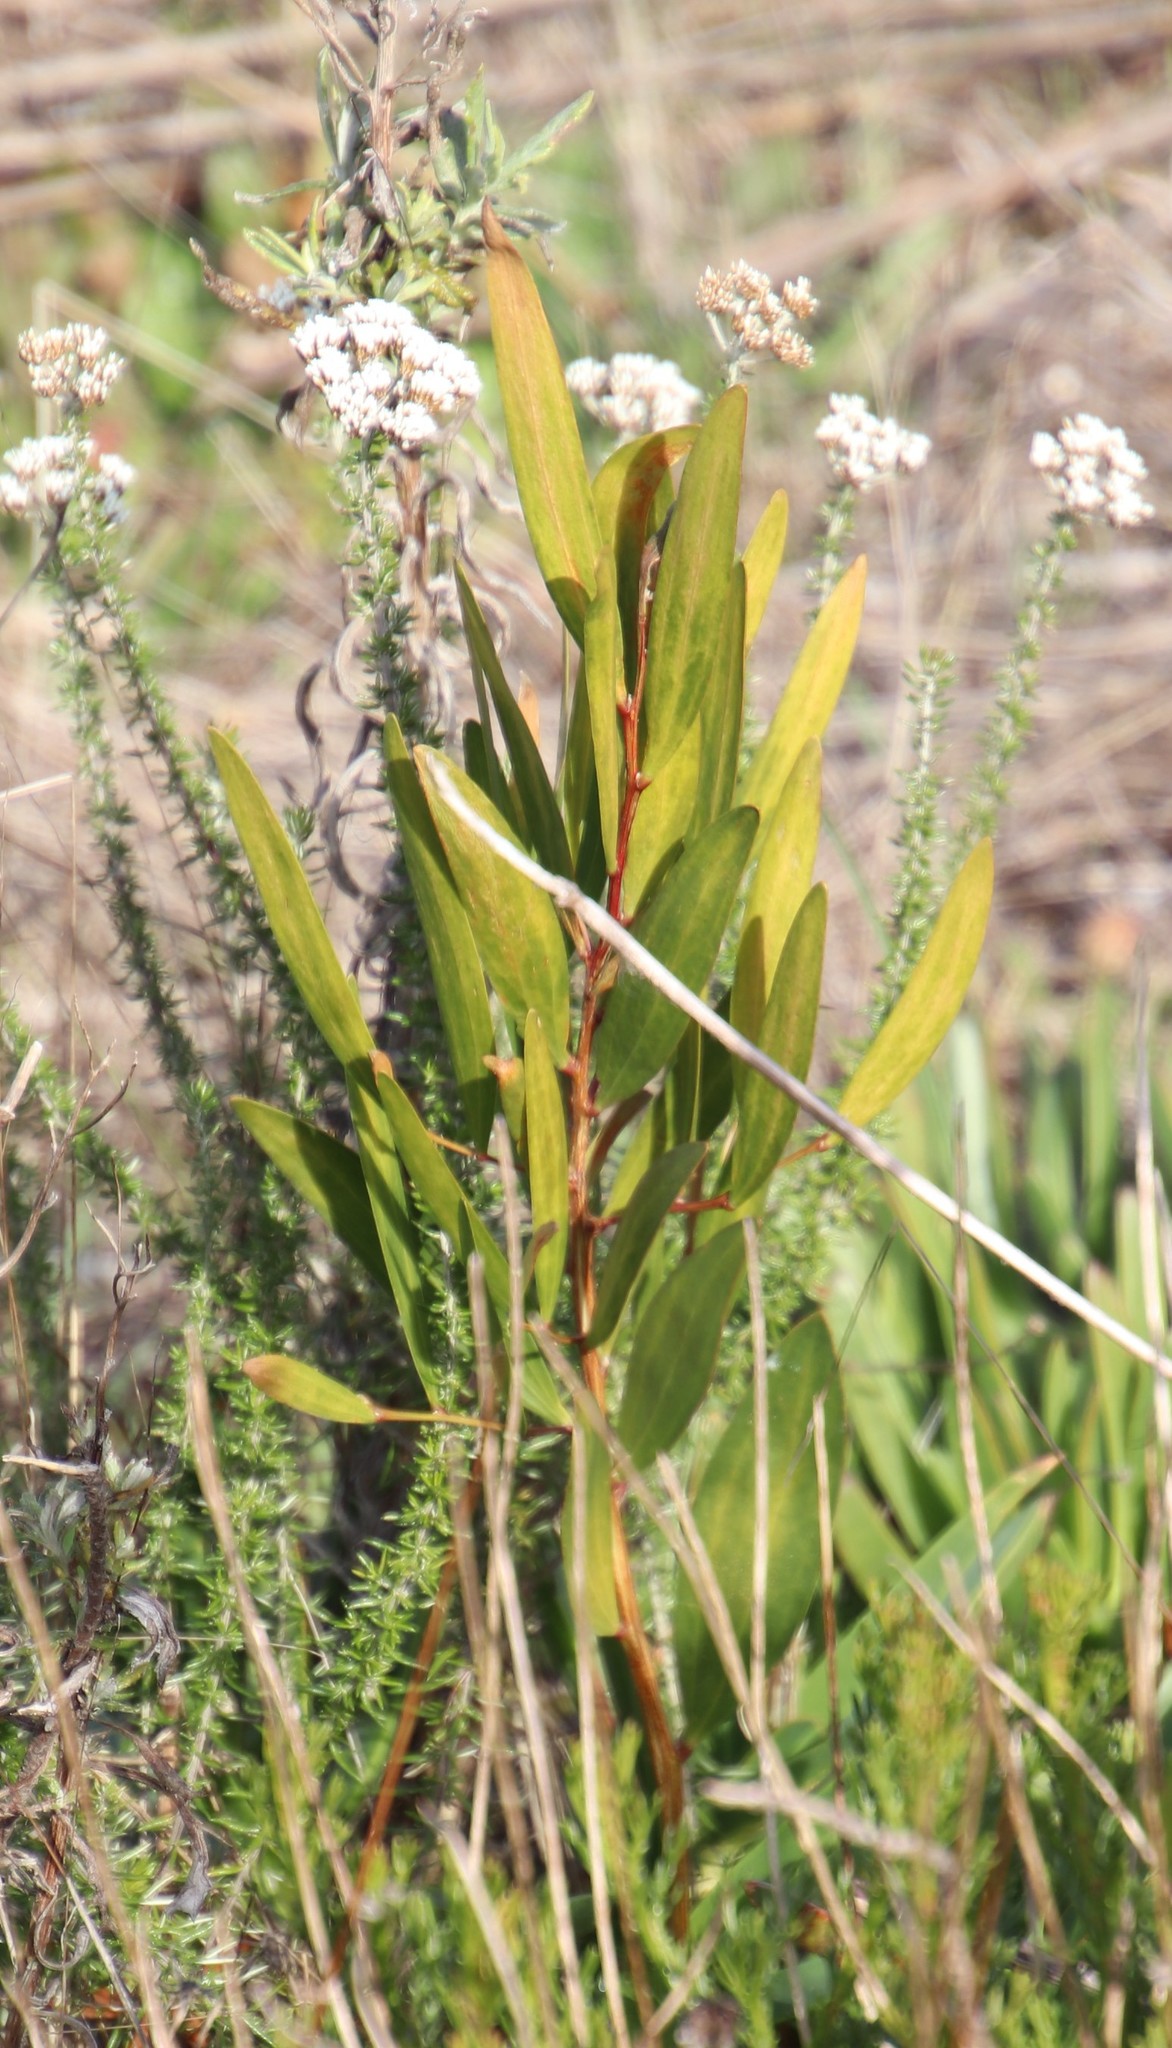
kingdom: Plantae
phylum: Tracheophyta
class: Magnoliopsida
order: Fabales
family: Fabaceae
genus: Acacia
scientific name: Acacia longifolia
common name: Sydney golden wattle
